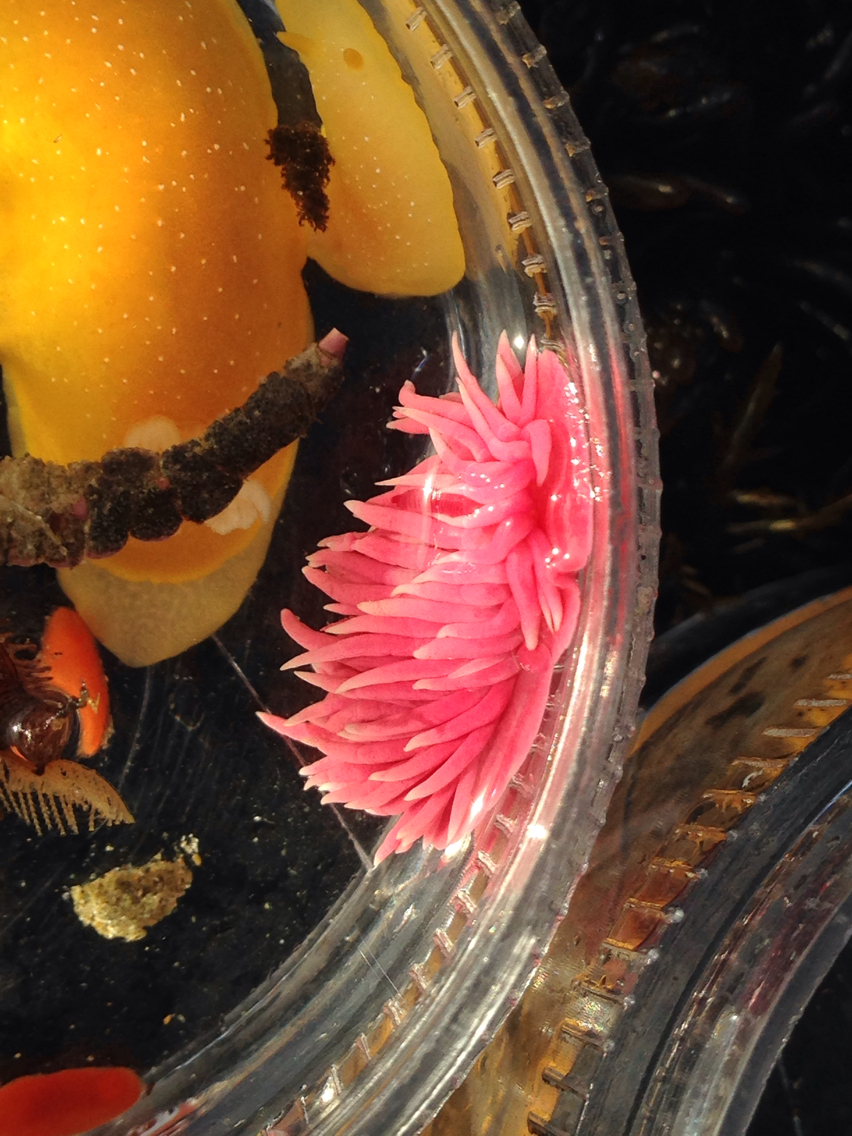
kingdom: Animalia
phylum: Mollusca
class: Gastropoda
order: Nudibranchia
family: Goniodorididae
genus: Okenia
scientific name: Okenia
